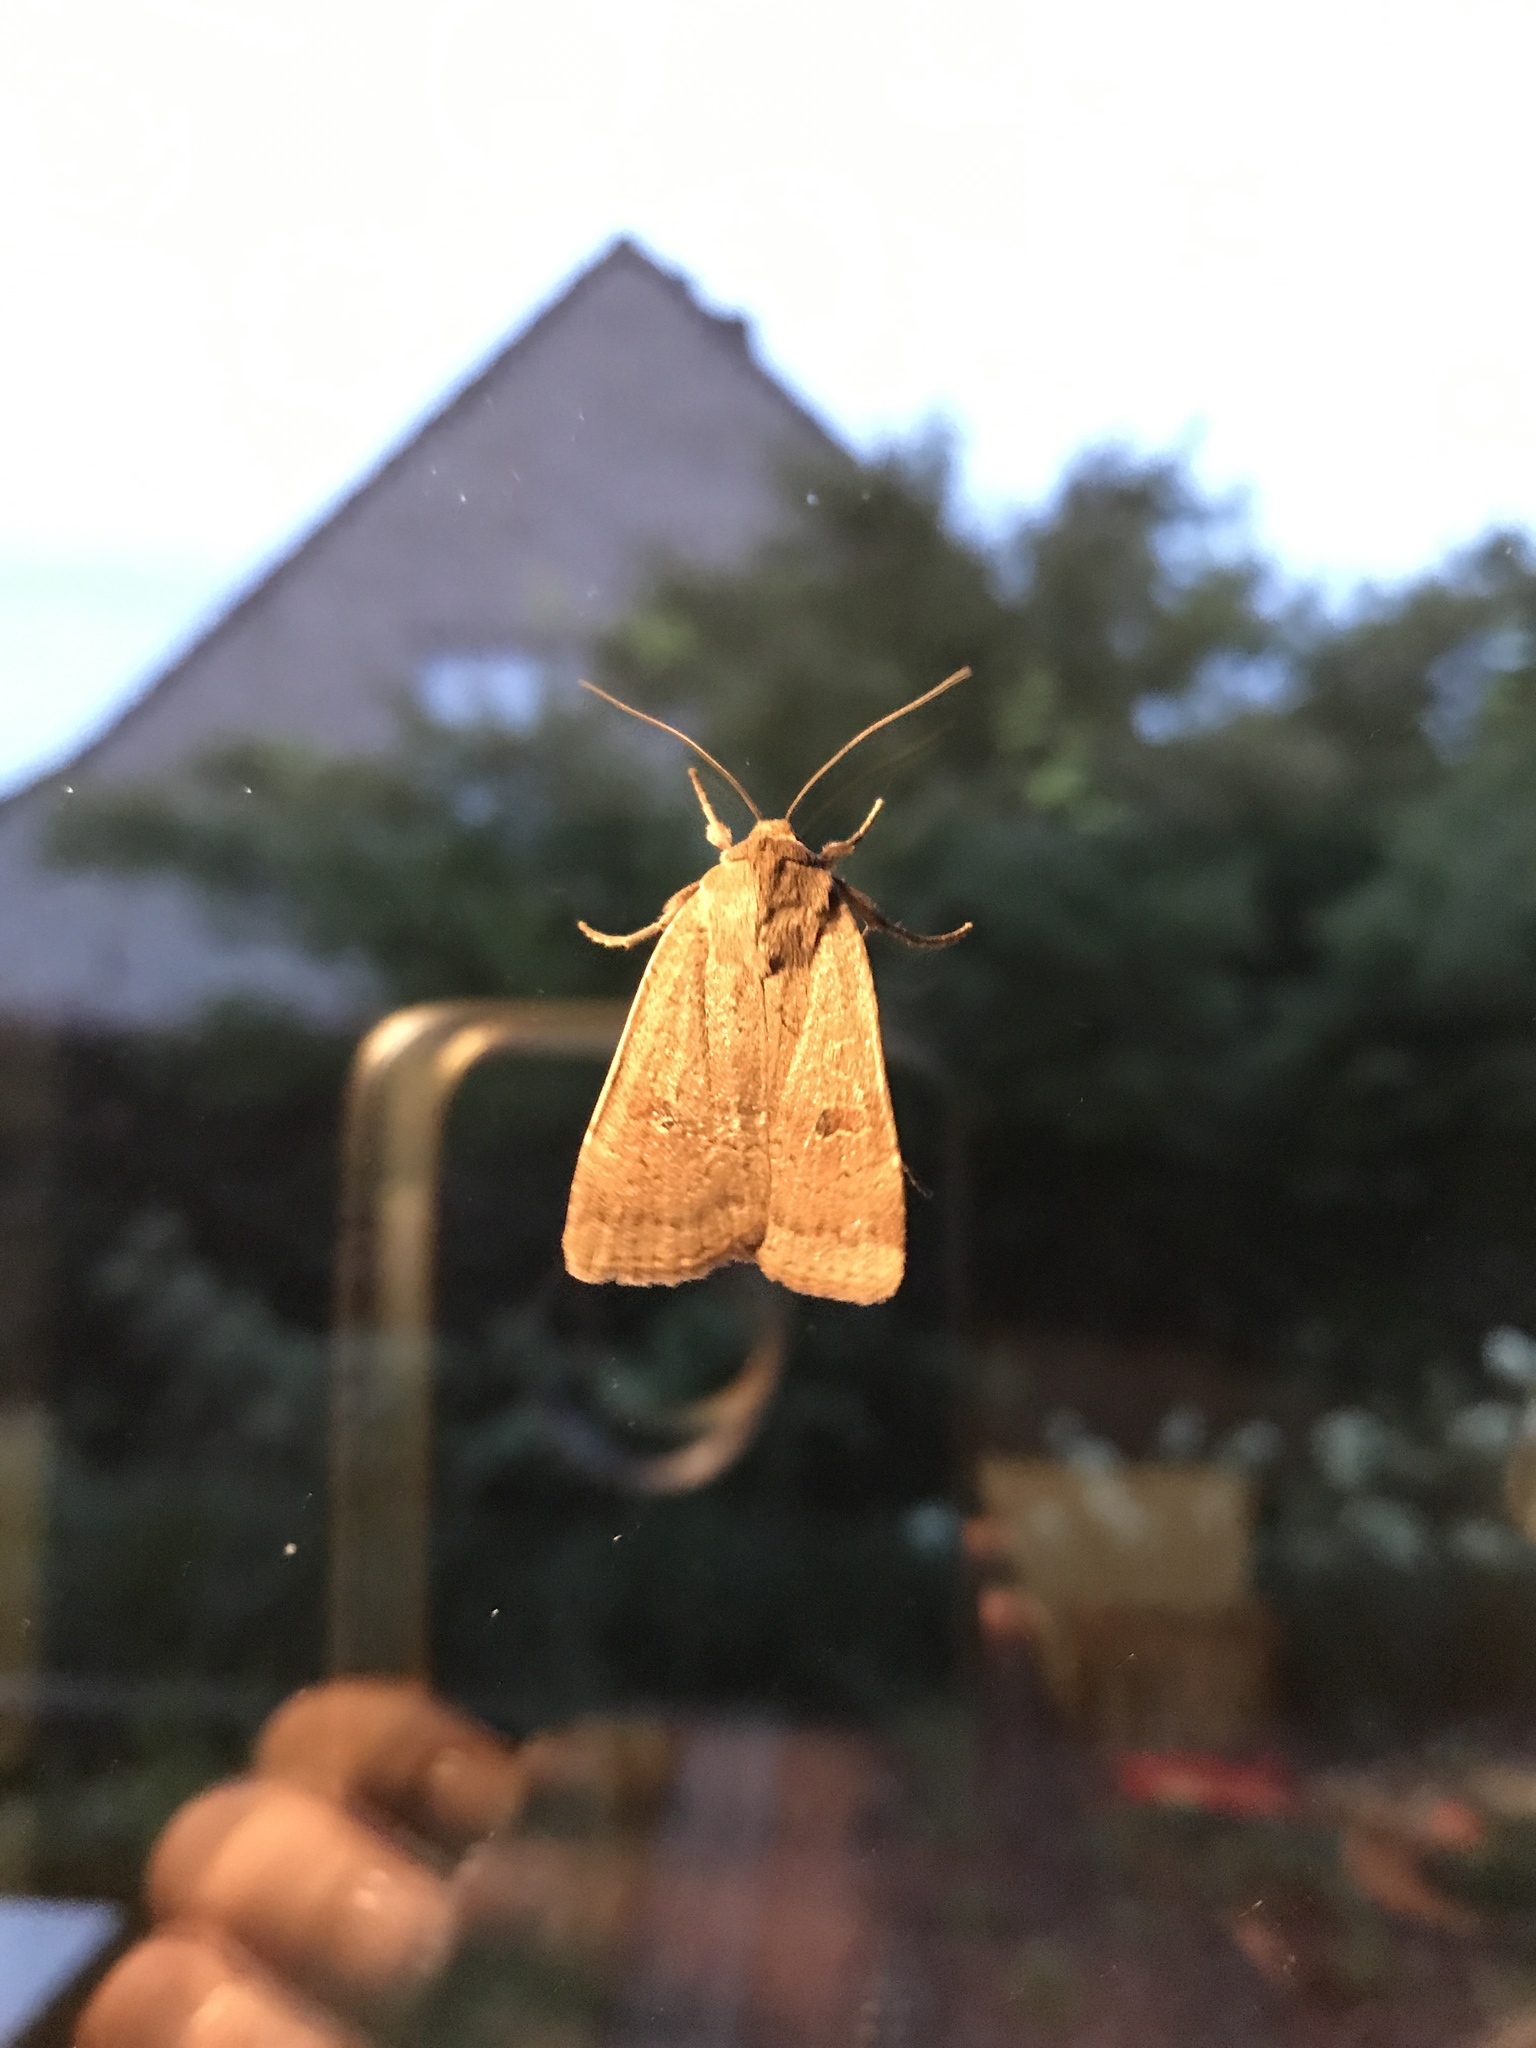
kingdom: Animalia
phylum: Arthropoda
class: Insecta
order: Lepidoptera
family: Noctuidae
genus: Noctua
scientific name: Noctua comes
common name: Lesser yellow underwing
